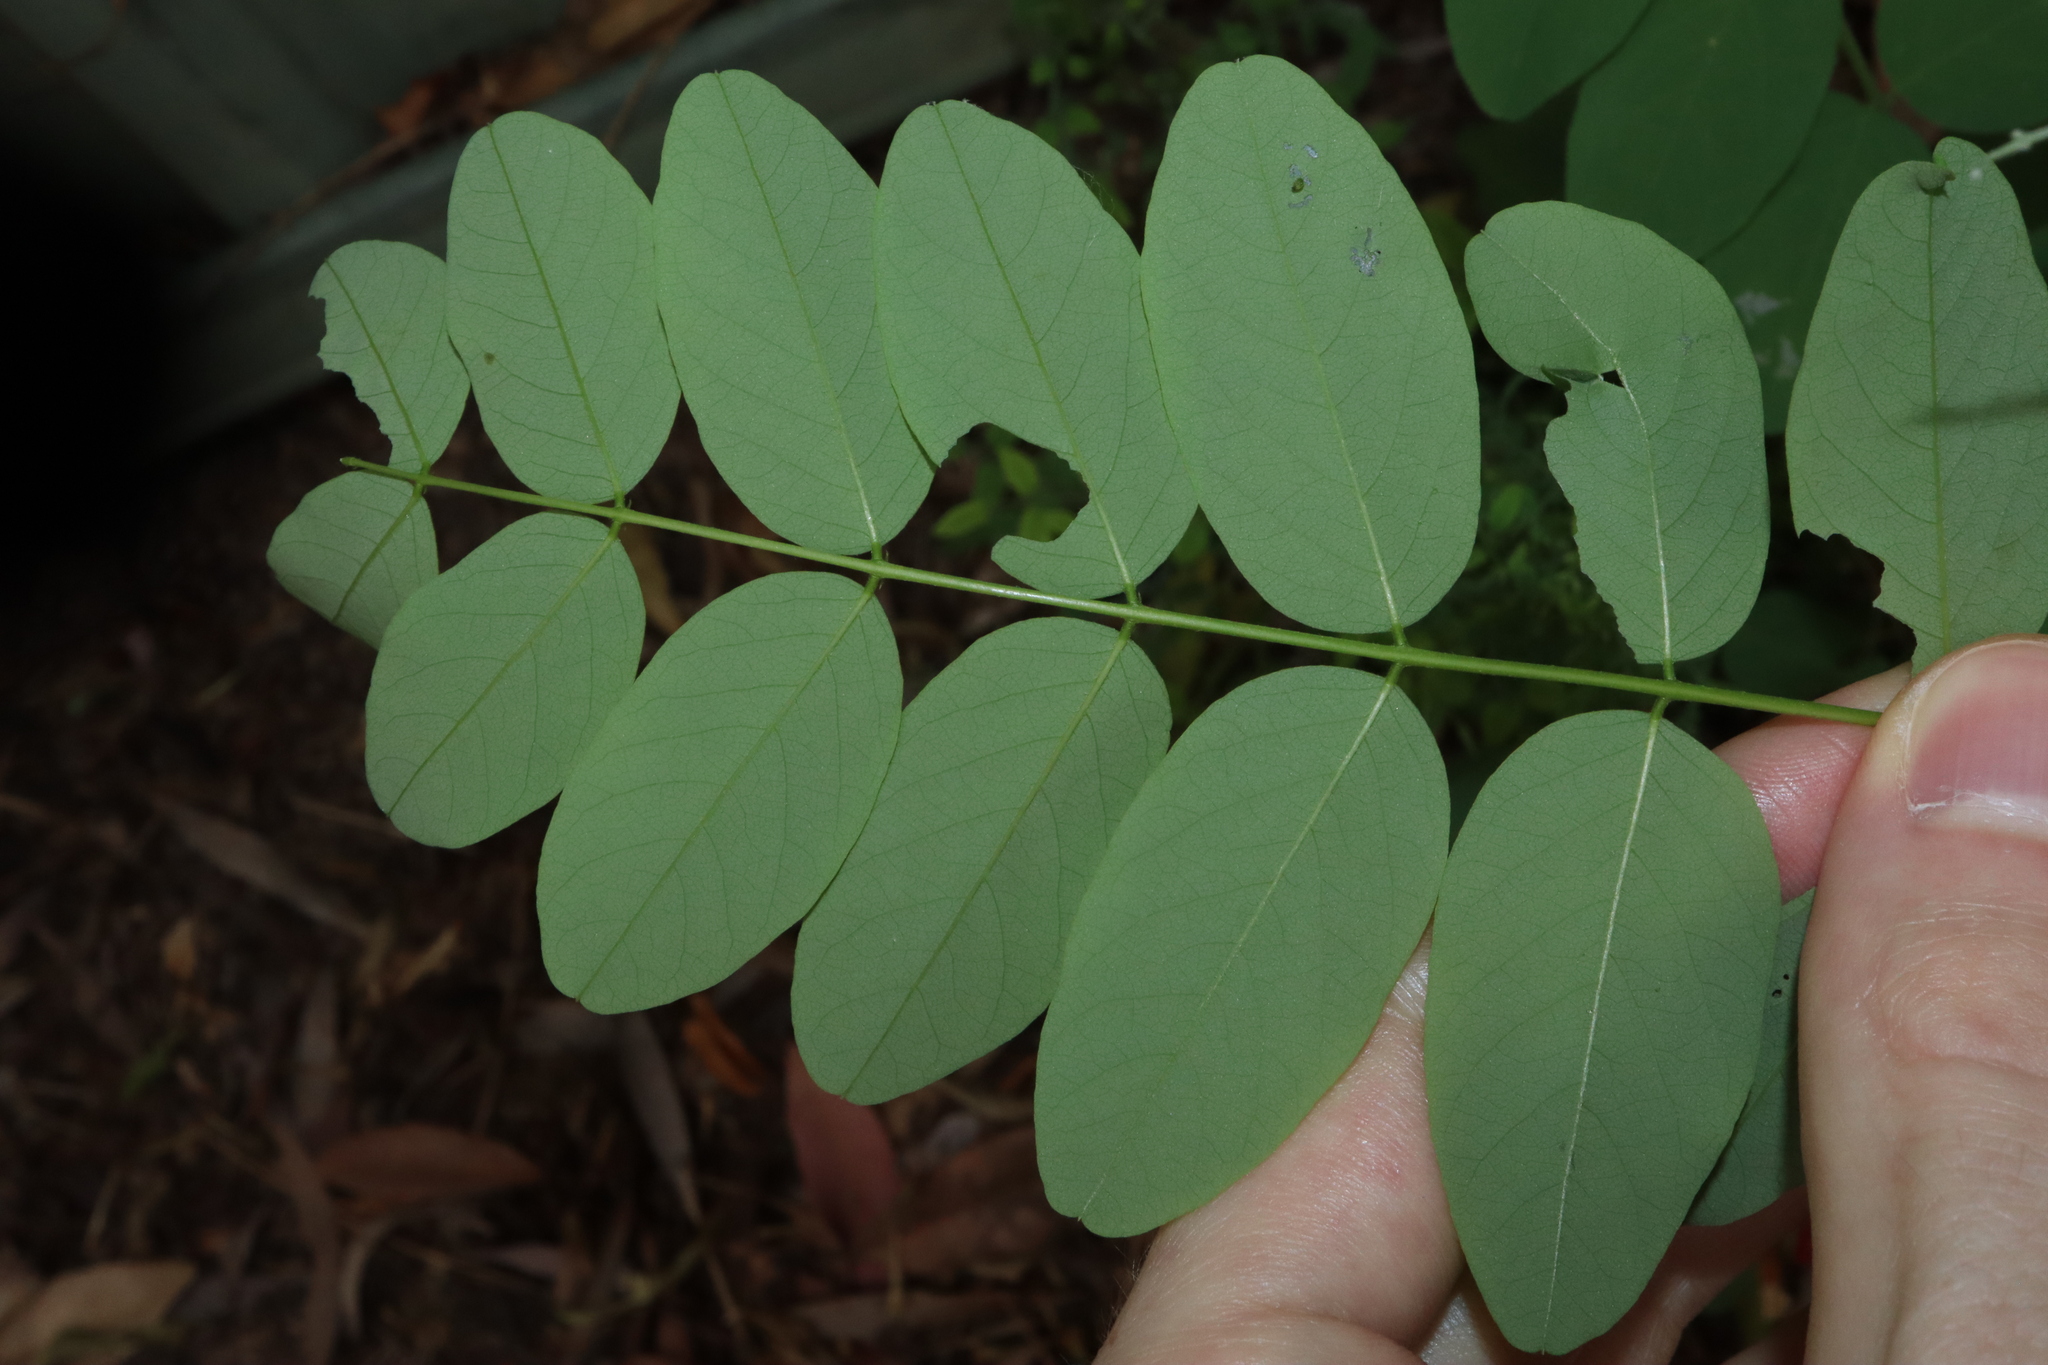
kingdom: Plantae
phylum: Tracheophyta
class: Magnoliopsida
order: Fabales
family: Fabaceae
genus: Robinia
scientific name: Robinia pseudoacacia
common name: Black locust
